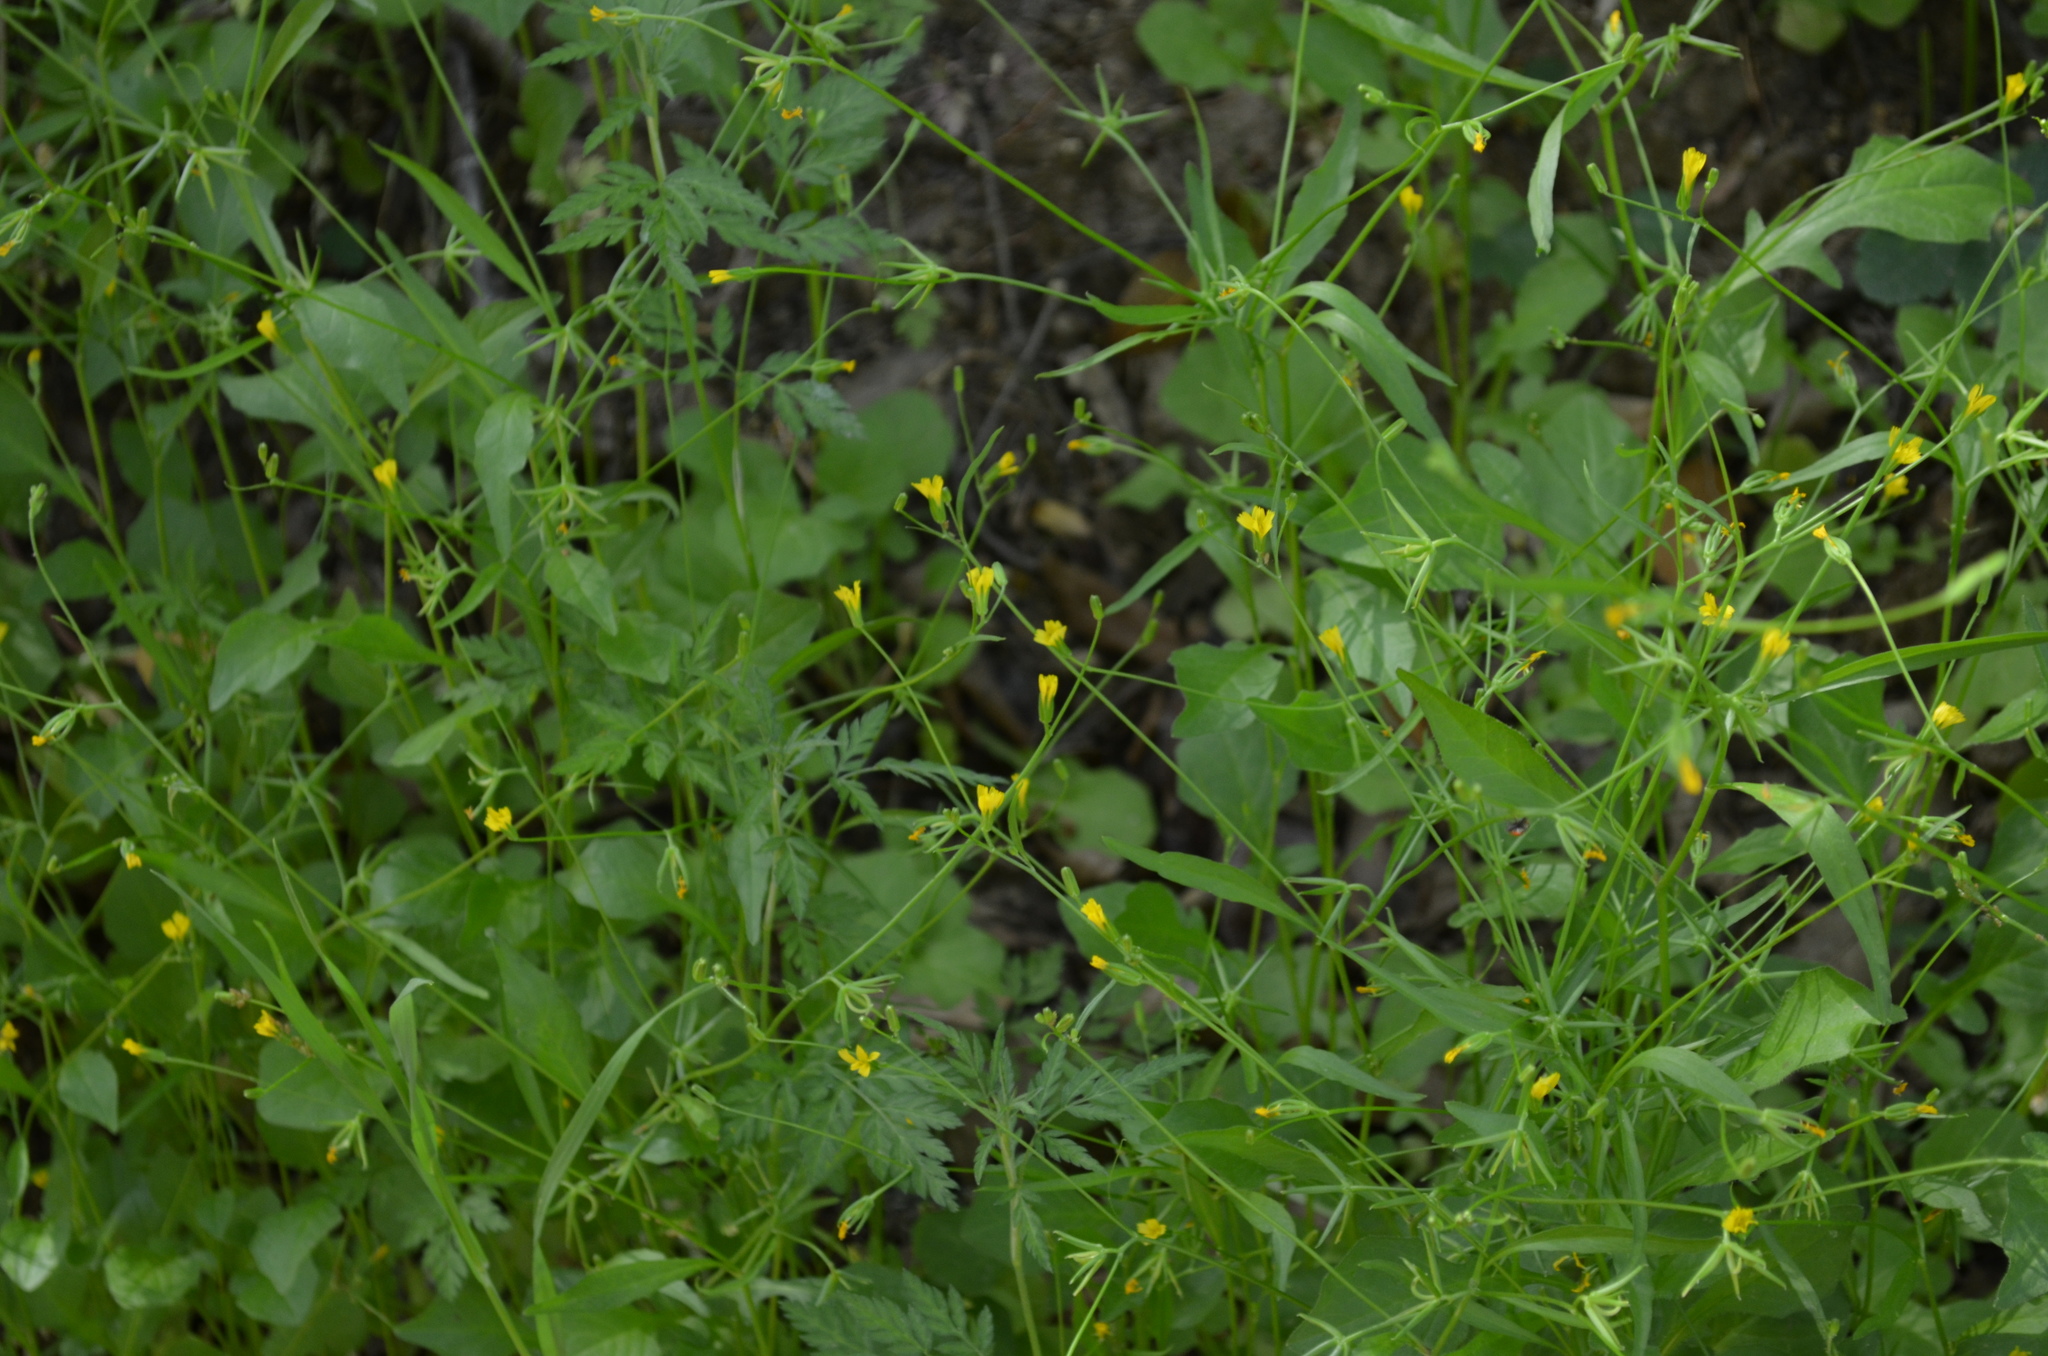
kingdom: Plantae
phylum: Tracheophyta
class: Magnoliopsida
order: Asterales
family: Asteraceae
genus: Rhagadiolus
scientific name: Rhagadiolus stellatus
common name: Star hawkbit
